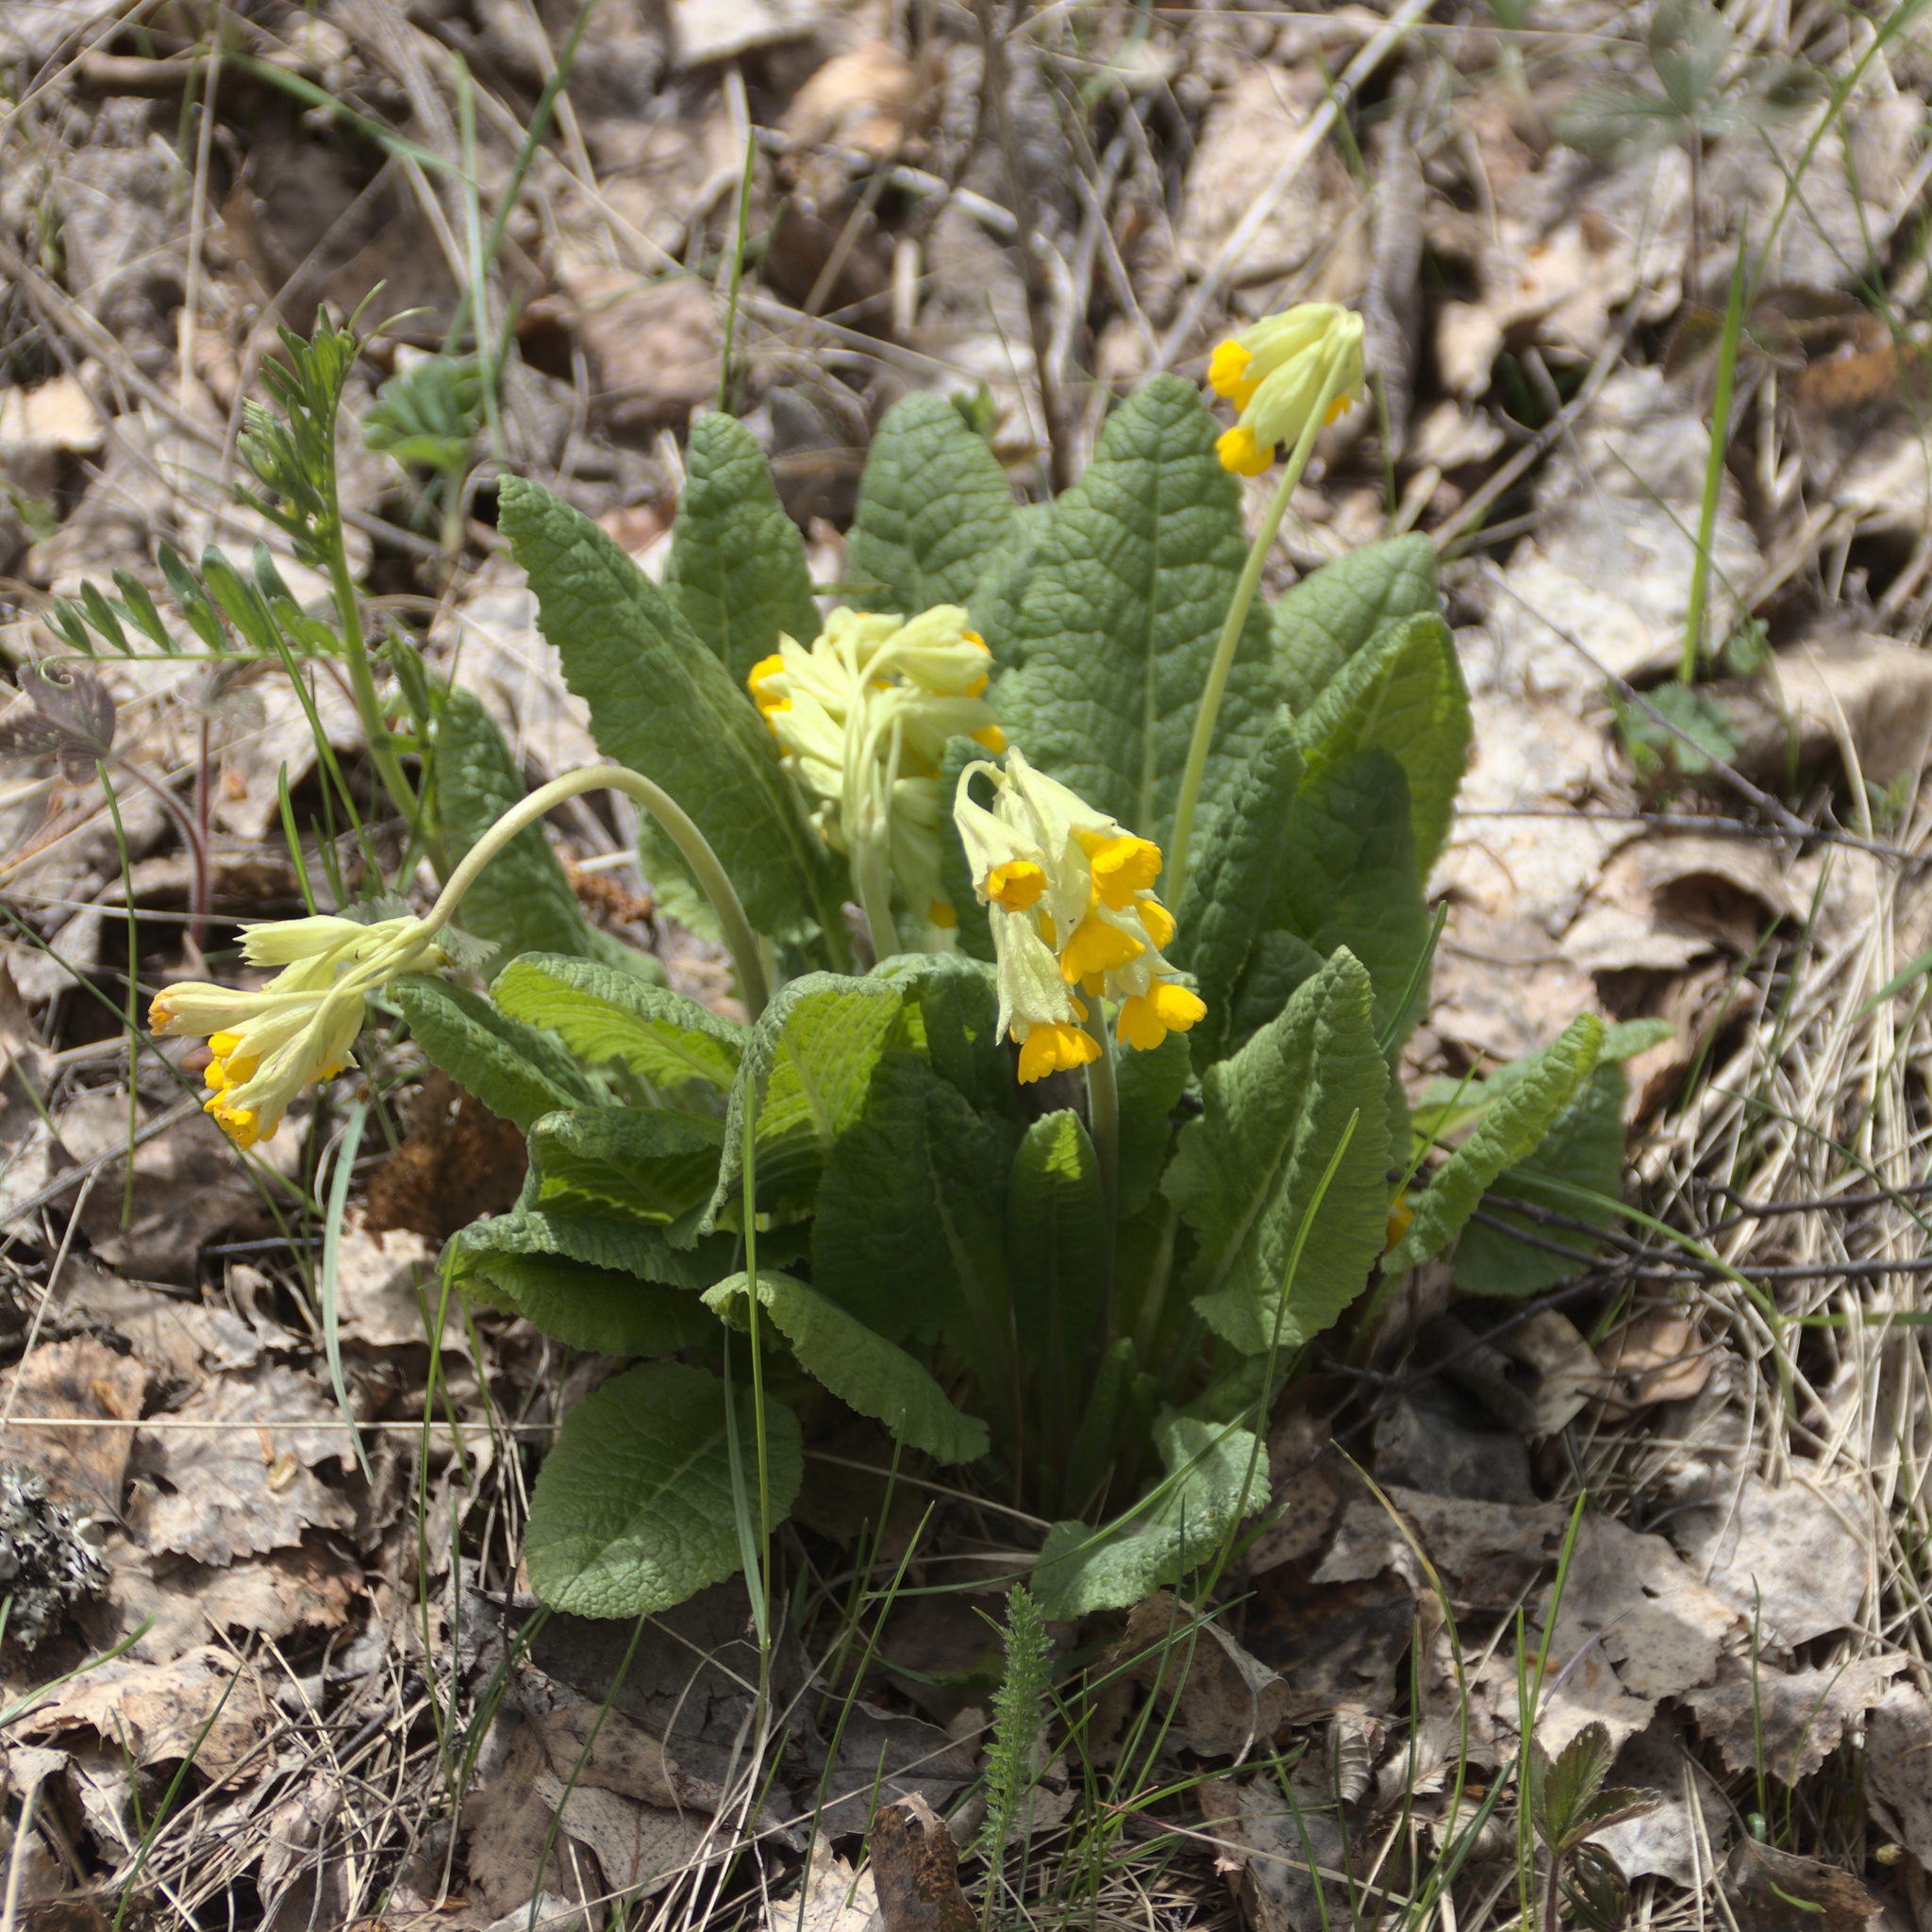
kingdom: Plantae
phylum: Tracheophyta
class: Magnoliopsida
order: Ericales
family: Primulaceae
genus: Primula
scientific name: Primula veris
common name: Cowslip
